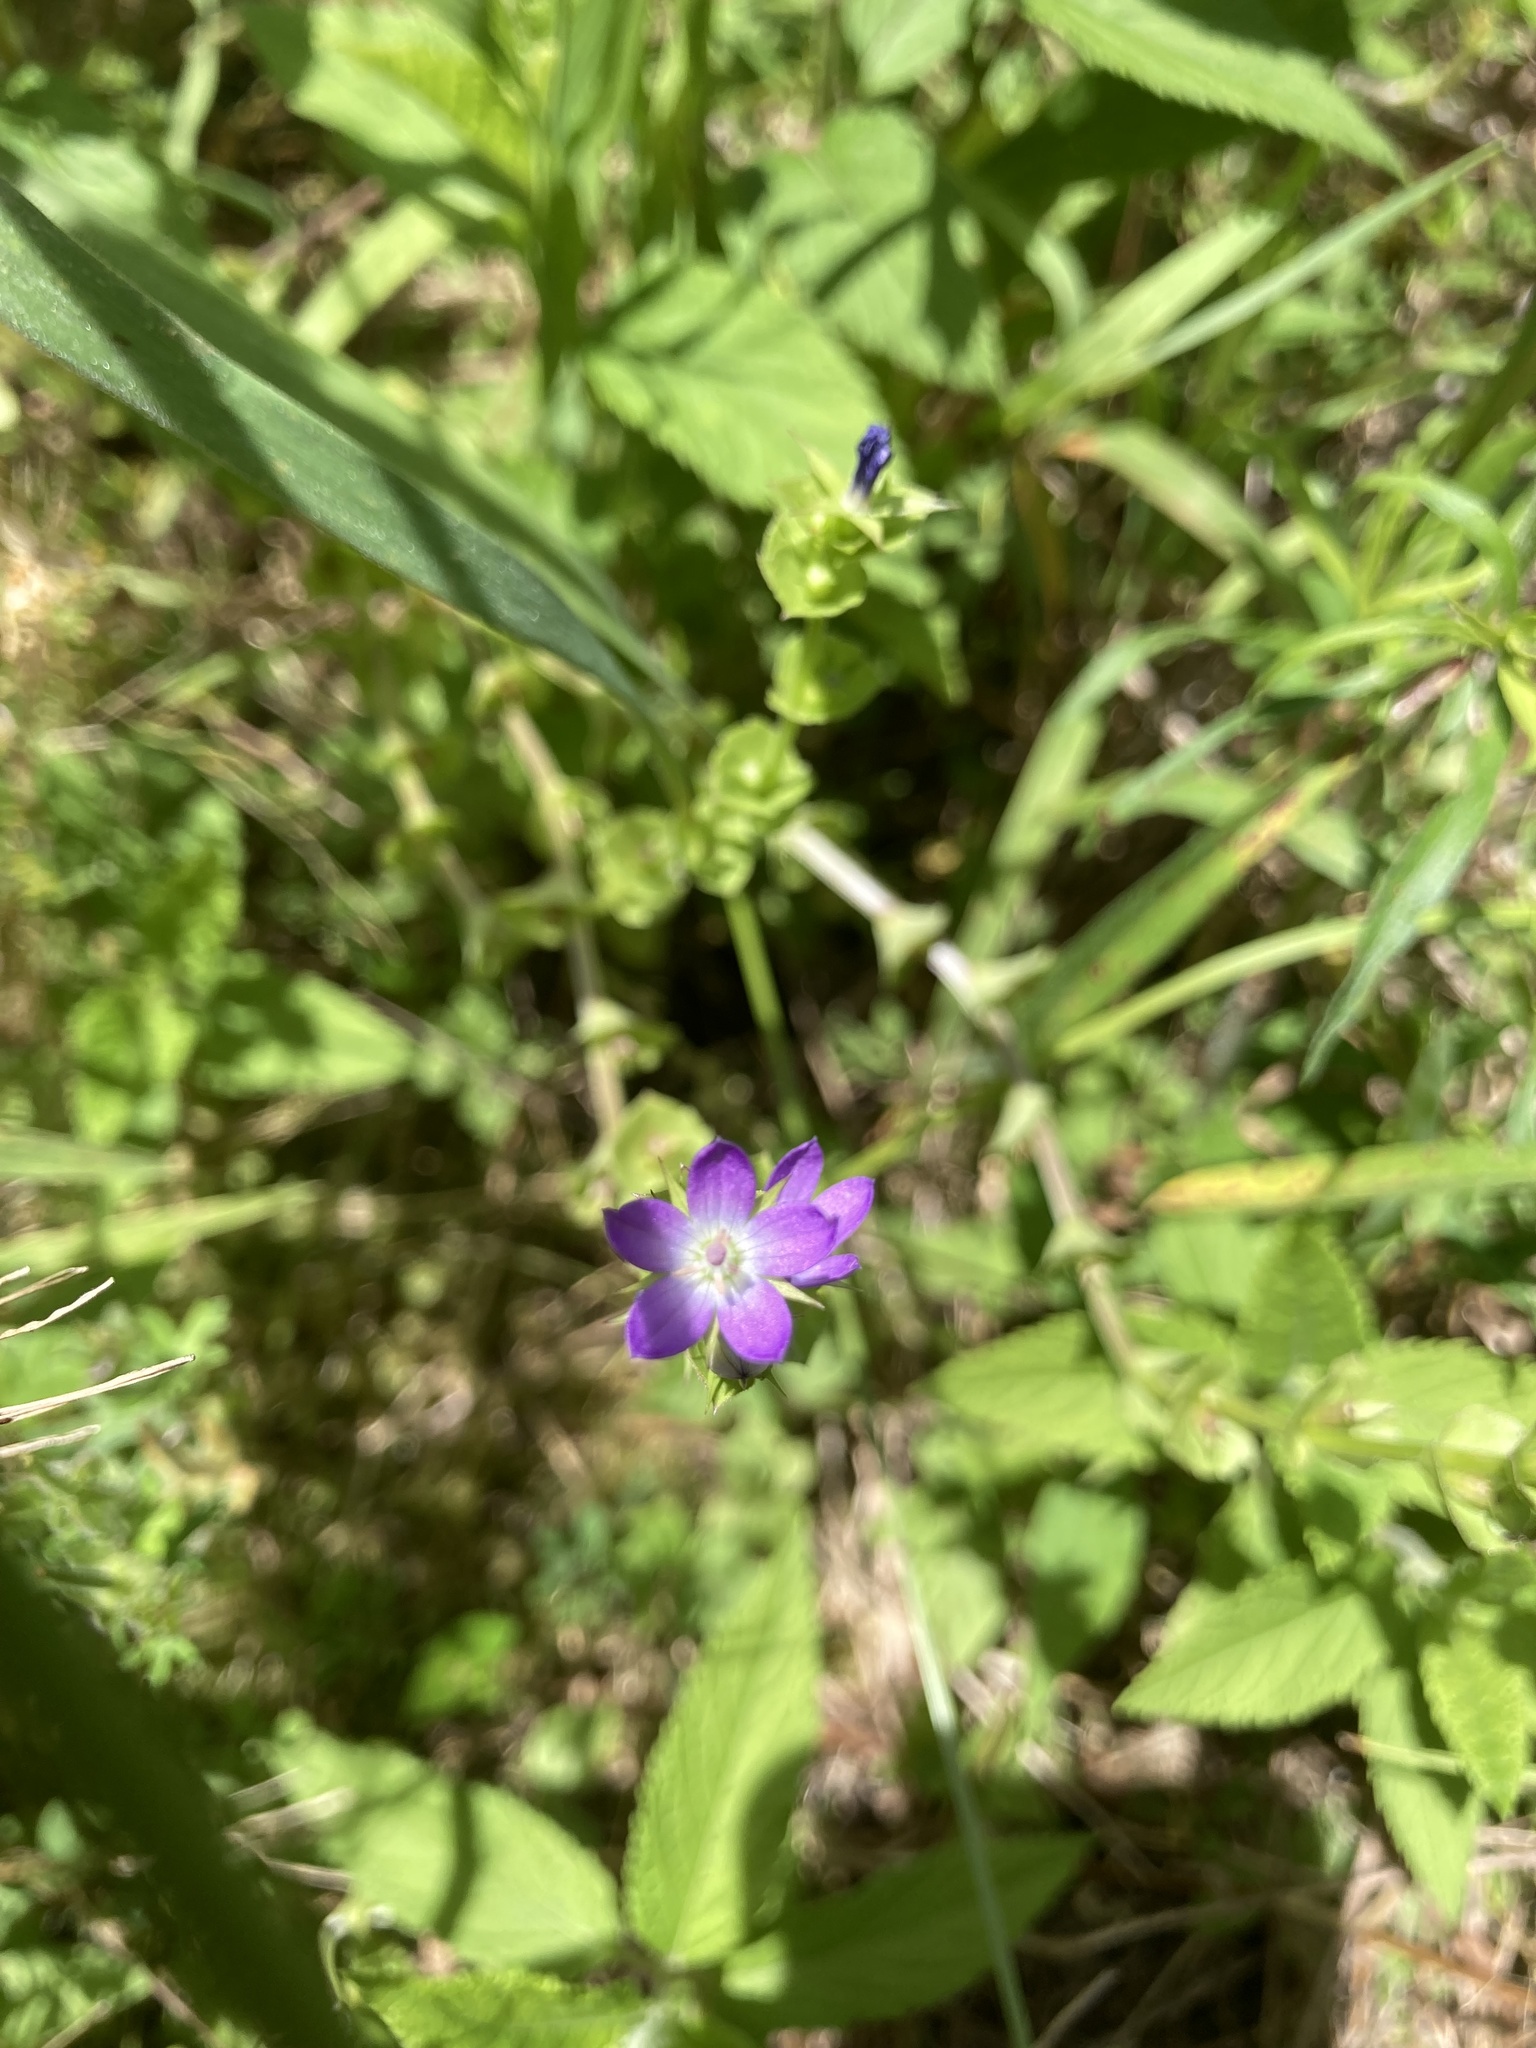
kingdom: Plantae
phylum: Tracheophyta
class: Magnoliopsida
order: Asterales
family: Campanulaceae
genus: Triodanis
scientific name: Triodanis perfoliata
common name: Clasping venus' looking-glass
